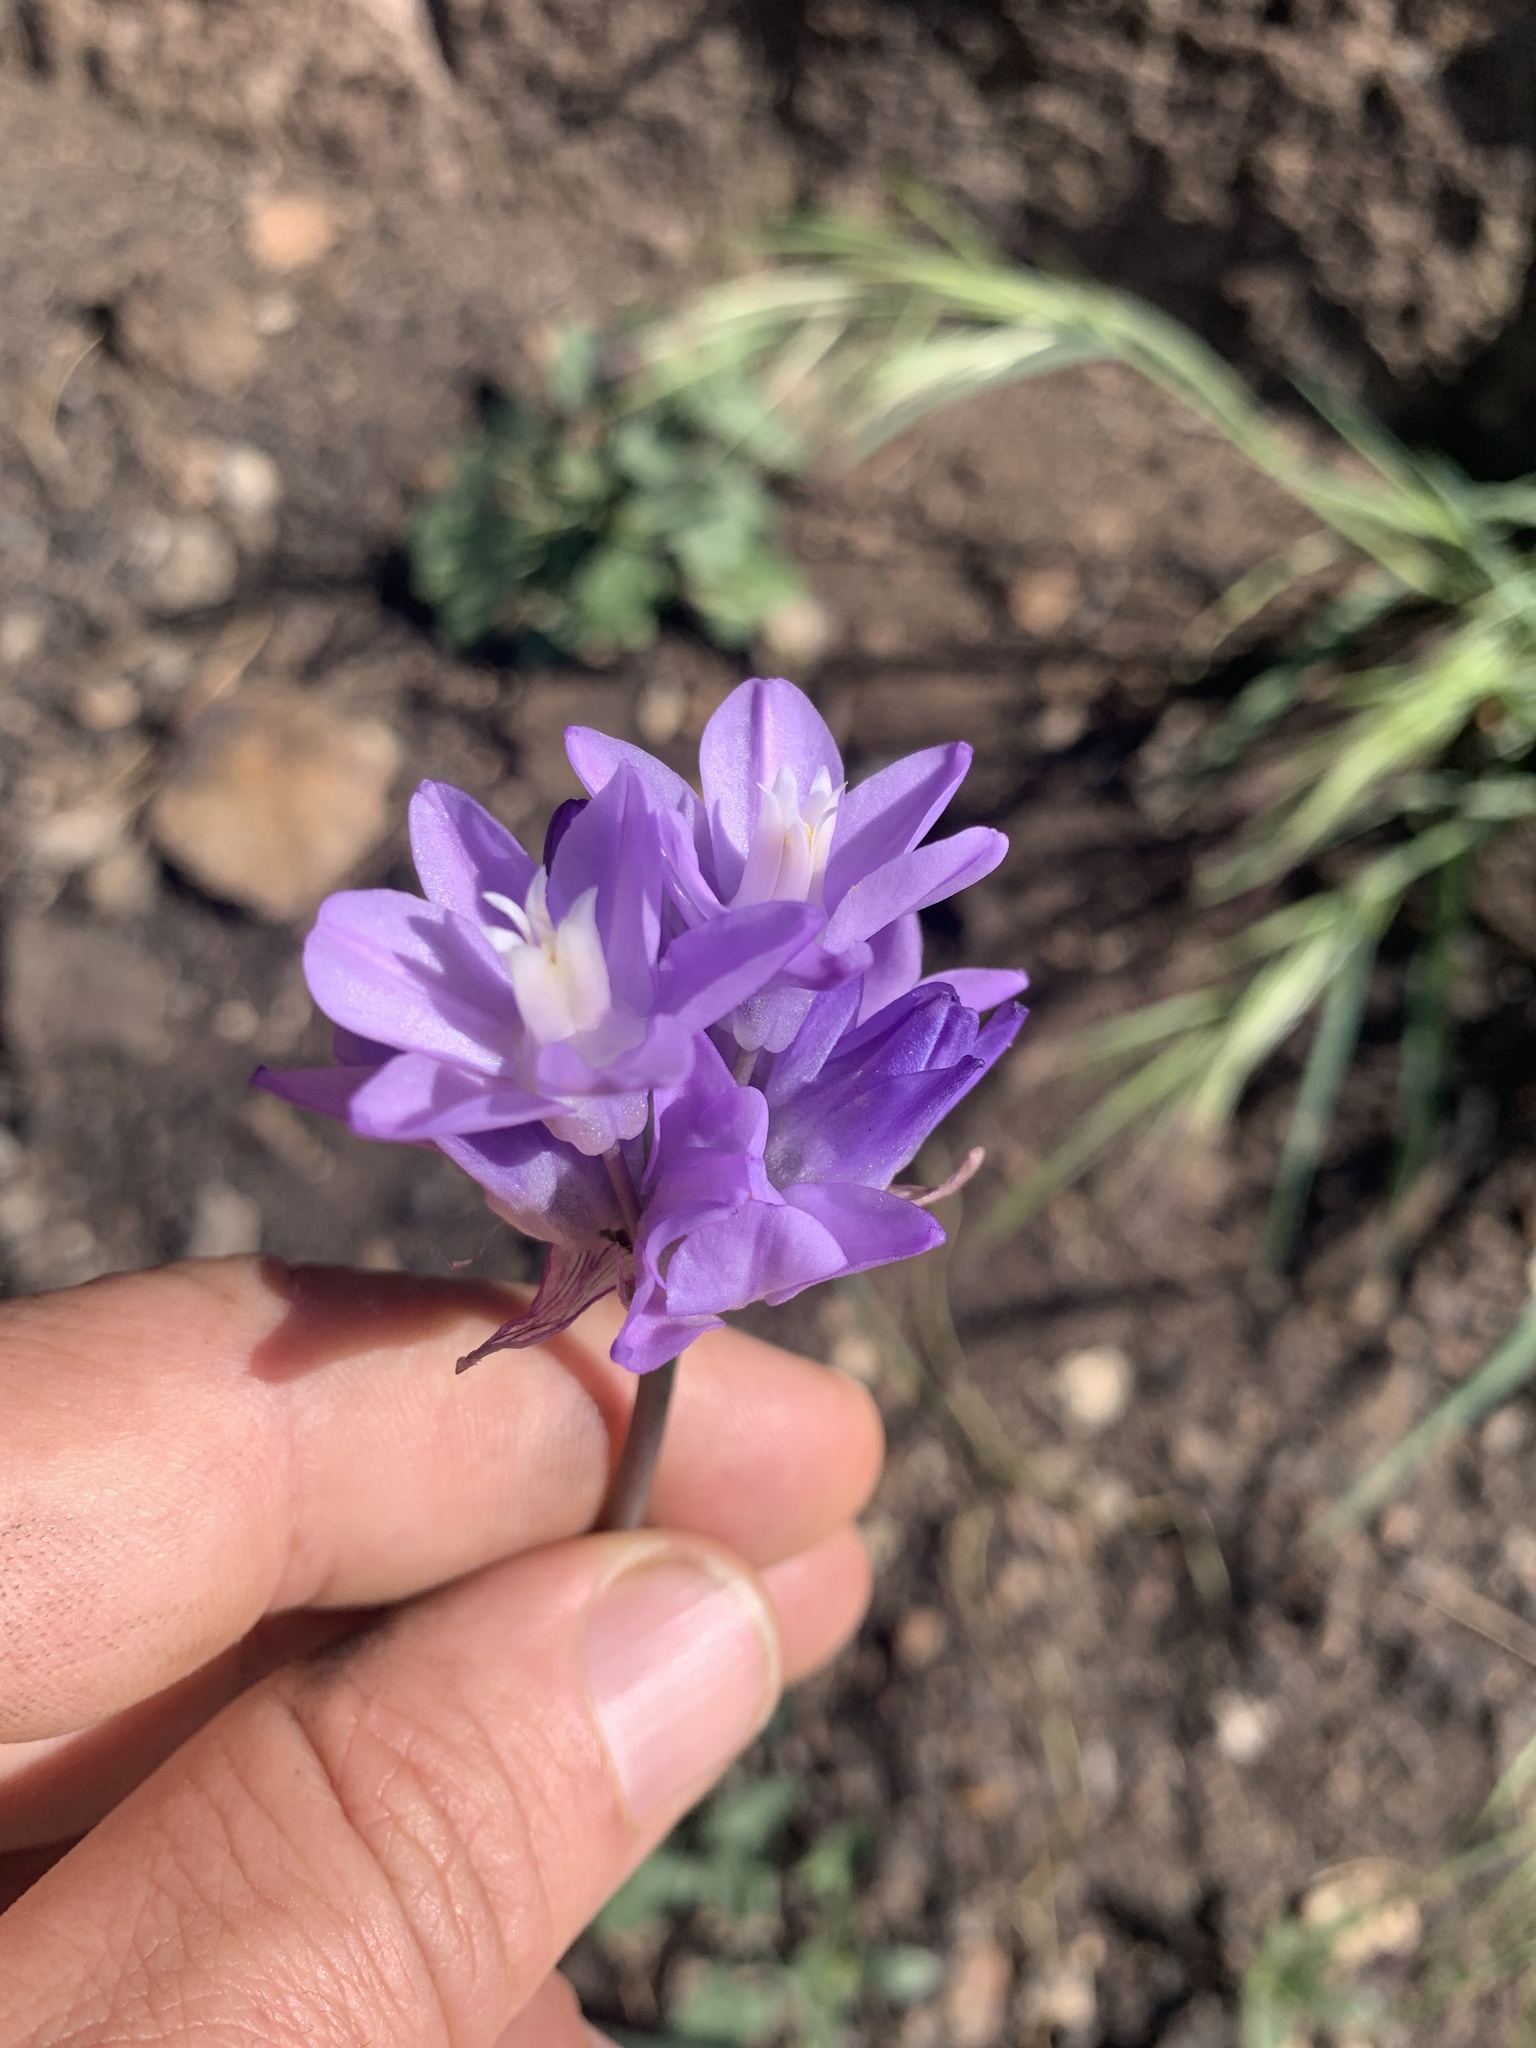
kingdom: Plantae
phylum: Tracheophyta
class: Liliopsida
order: Asparagales
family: Asparagaceae
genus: Dipterostemon
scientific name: Dipterostemon capitatus
